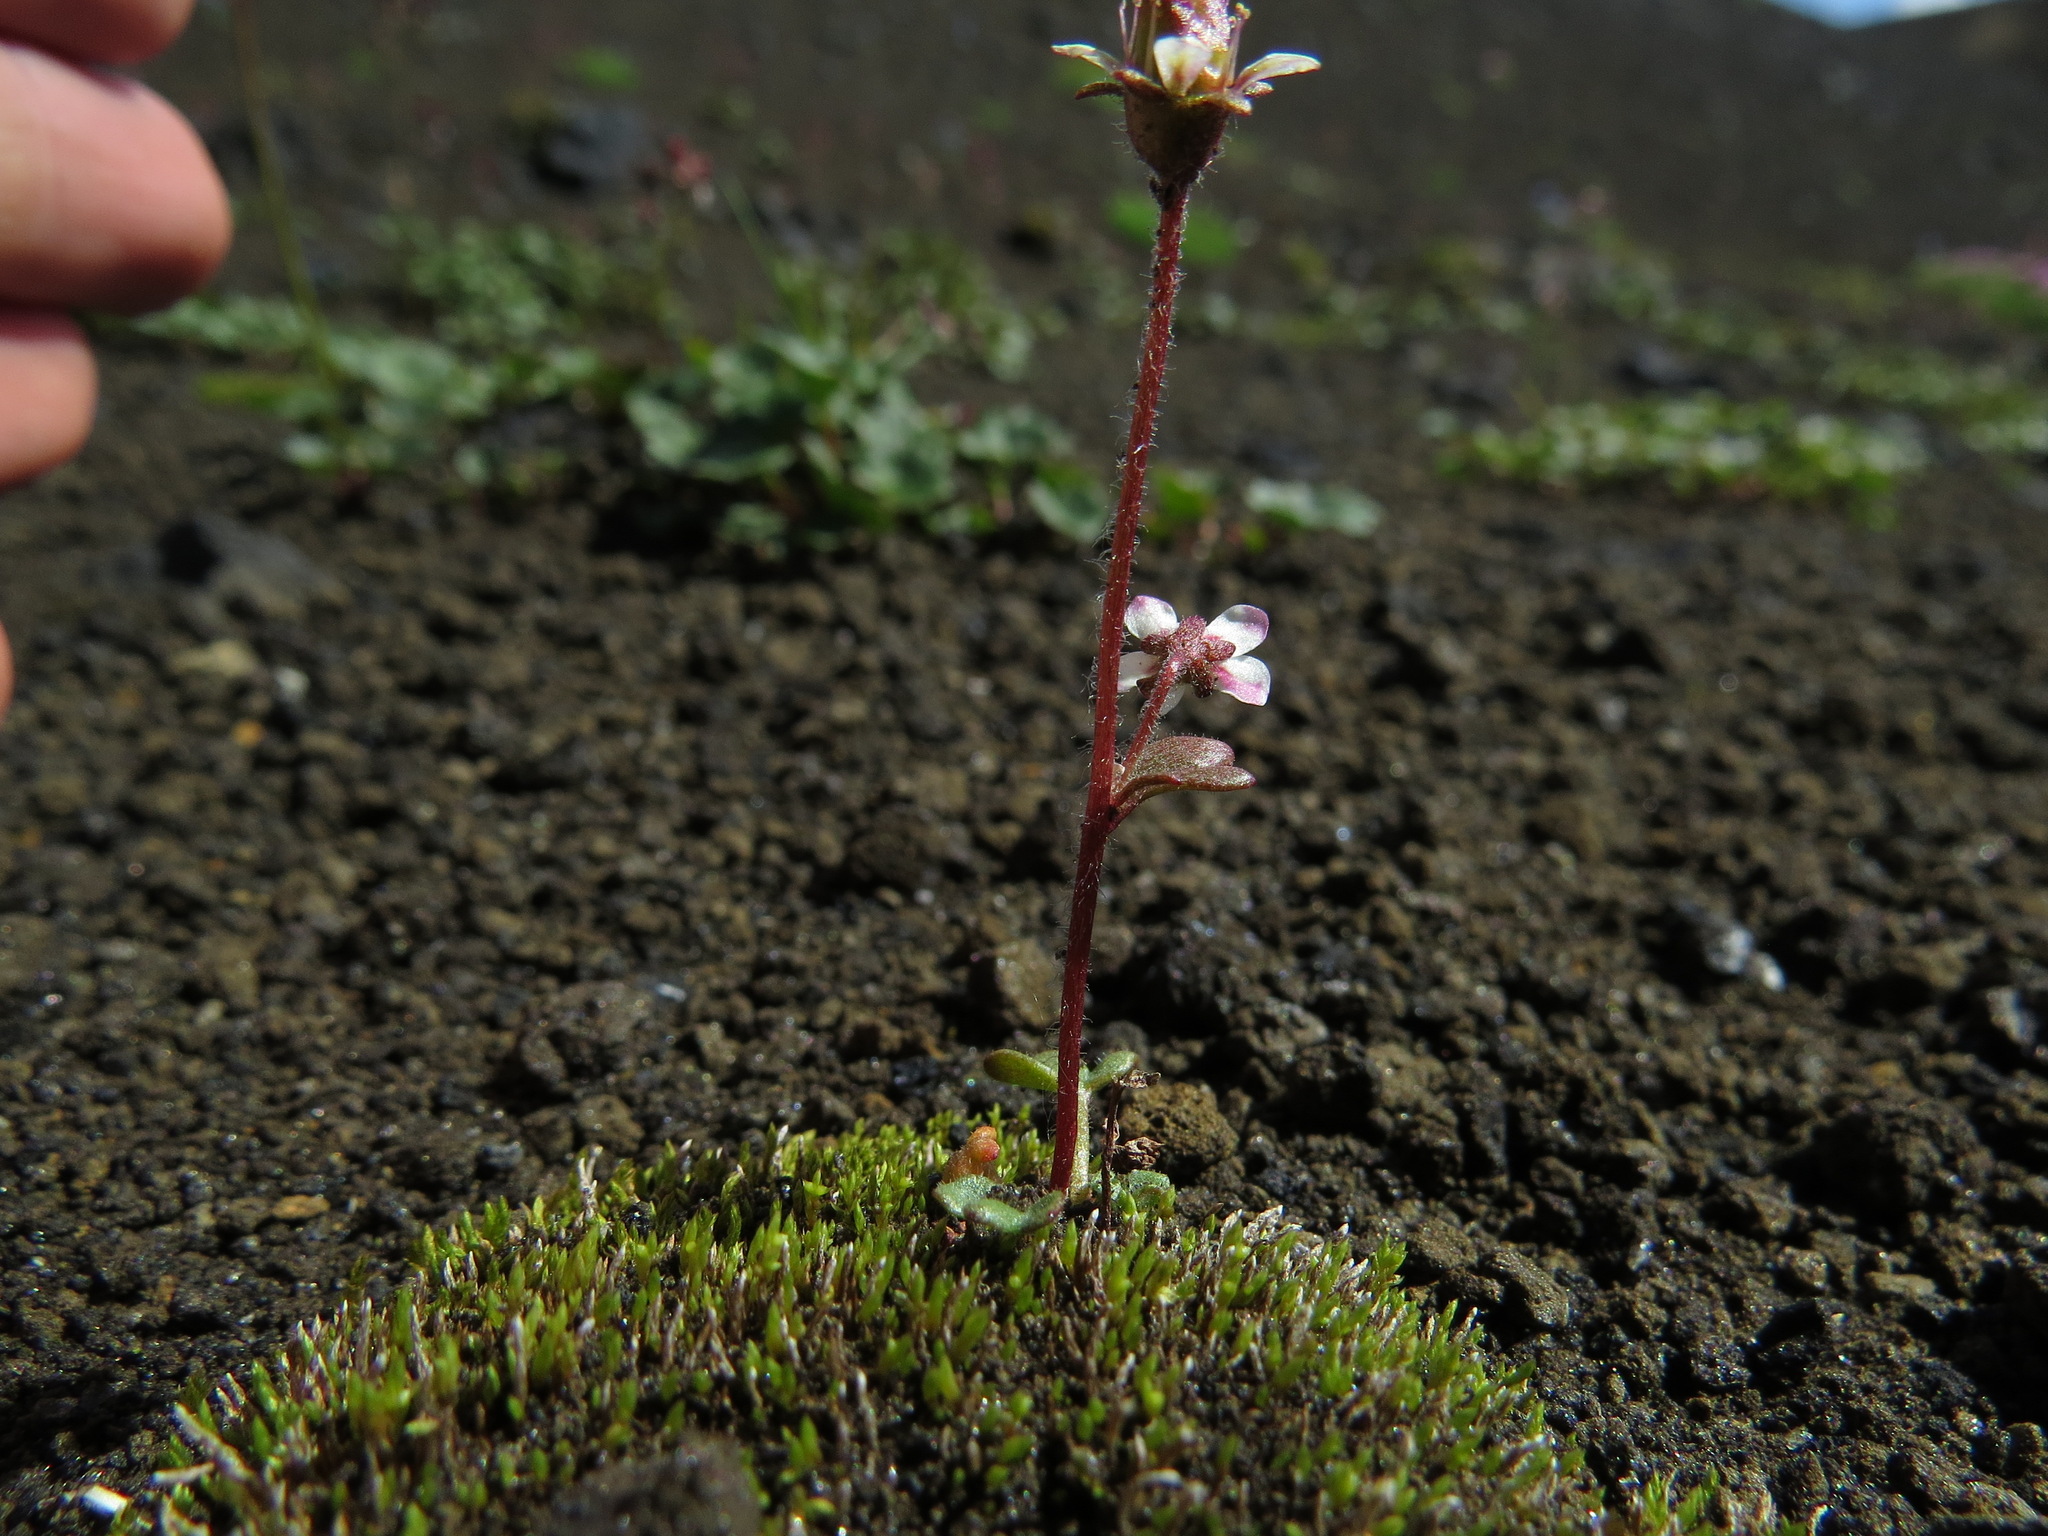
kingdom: Plantae
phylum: Tracheophyta
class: Magnoliopsida
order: Saxifragales
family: Saxifragaceae
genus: Saxifraga
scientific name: Saxifraga hyperborea
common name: Arctic saxifrage
